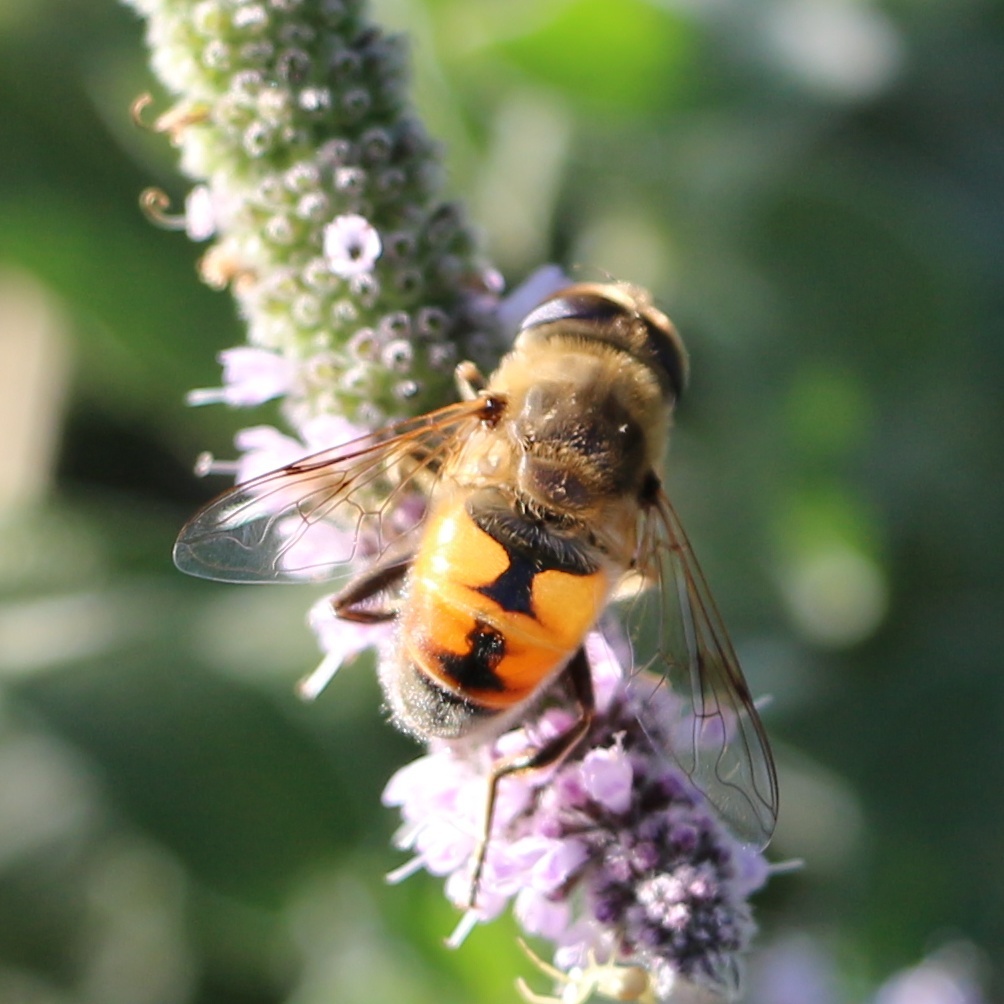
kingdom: Animalia
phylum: Arthropoda
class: Insecta
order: Diptera
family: Syrphidae
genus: Eristalis
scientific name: Eristalis tenax
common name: Drone fly
